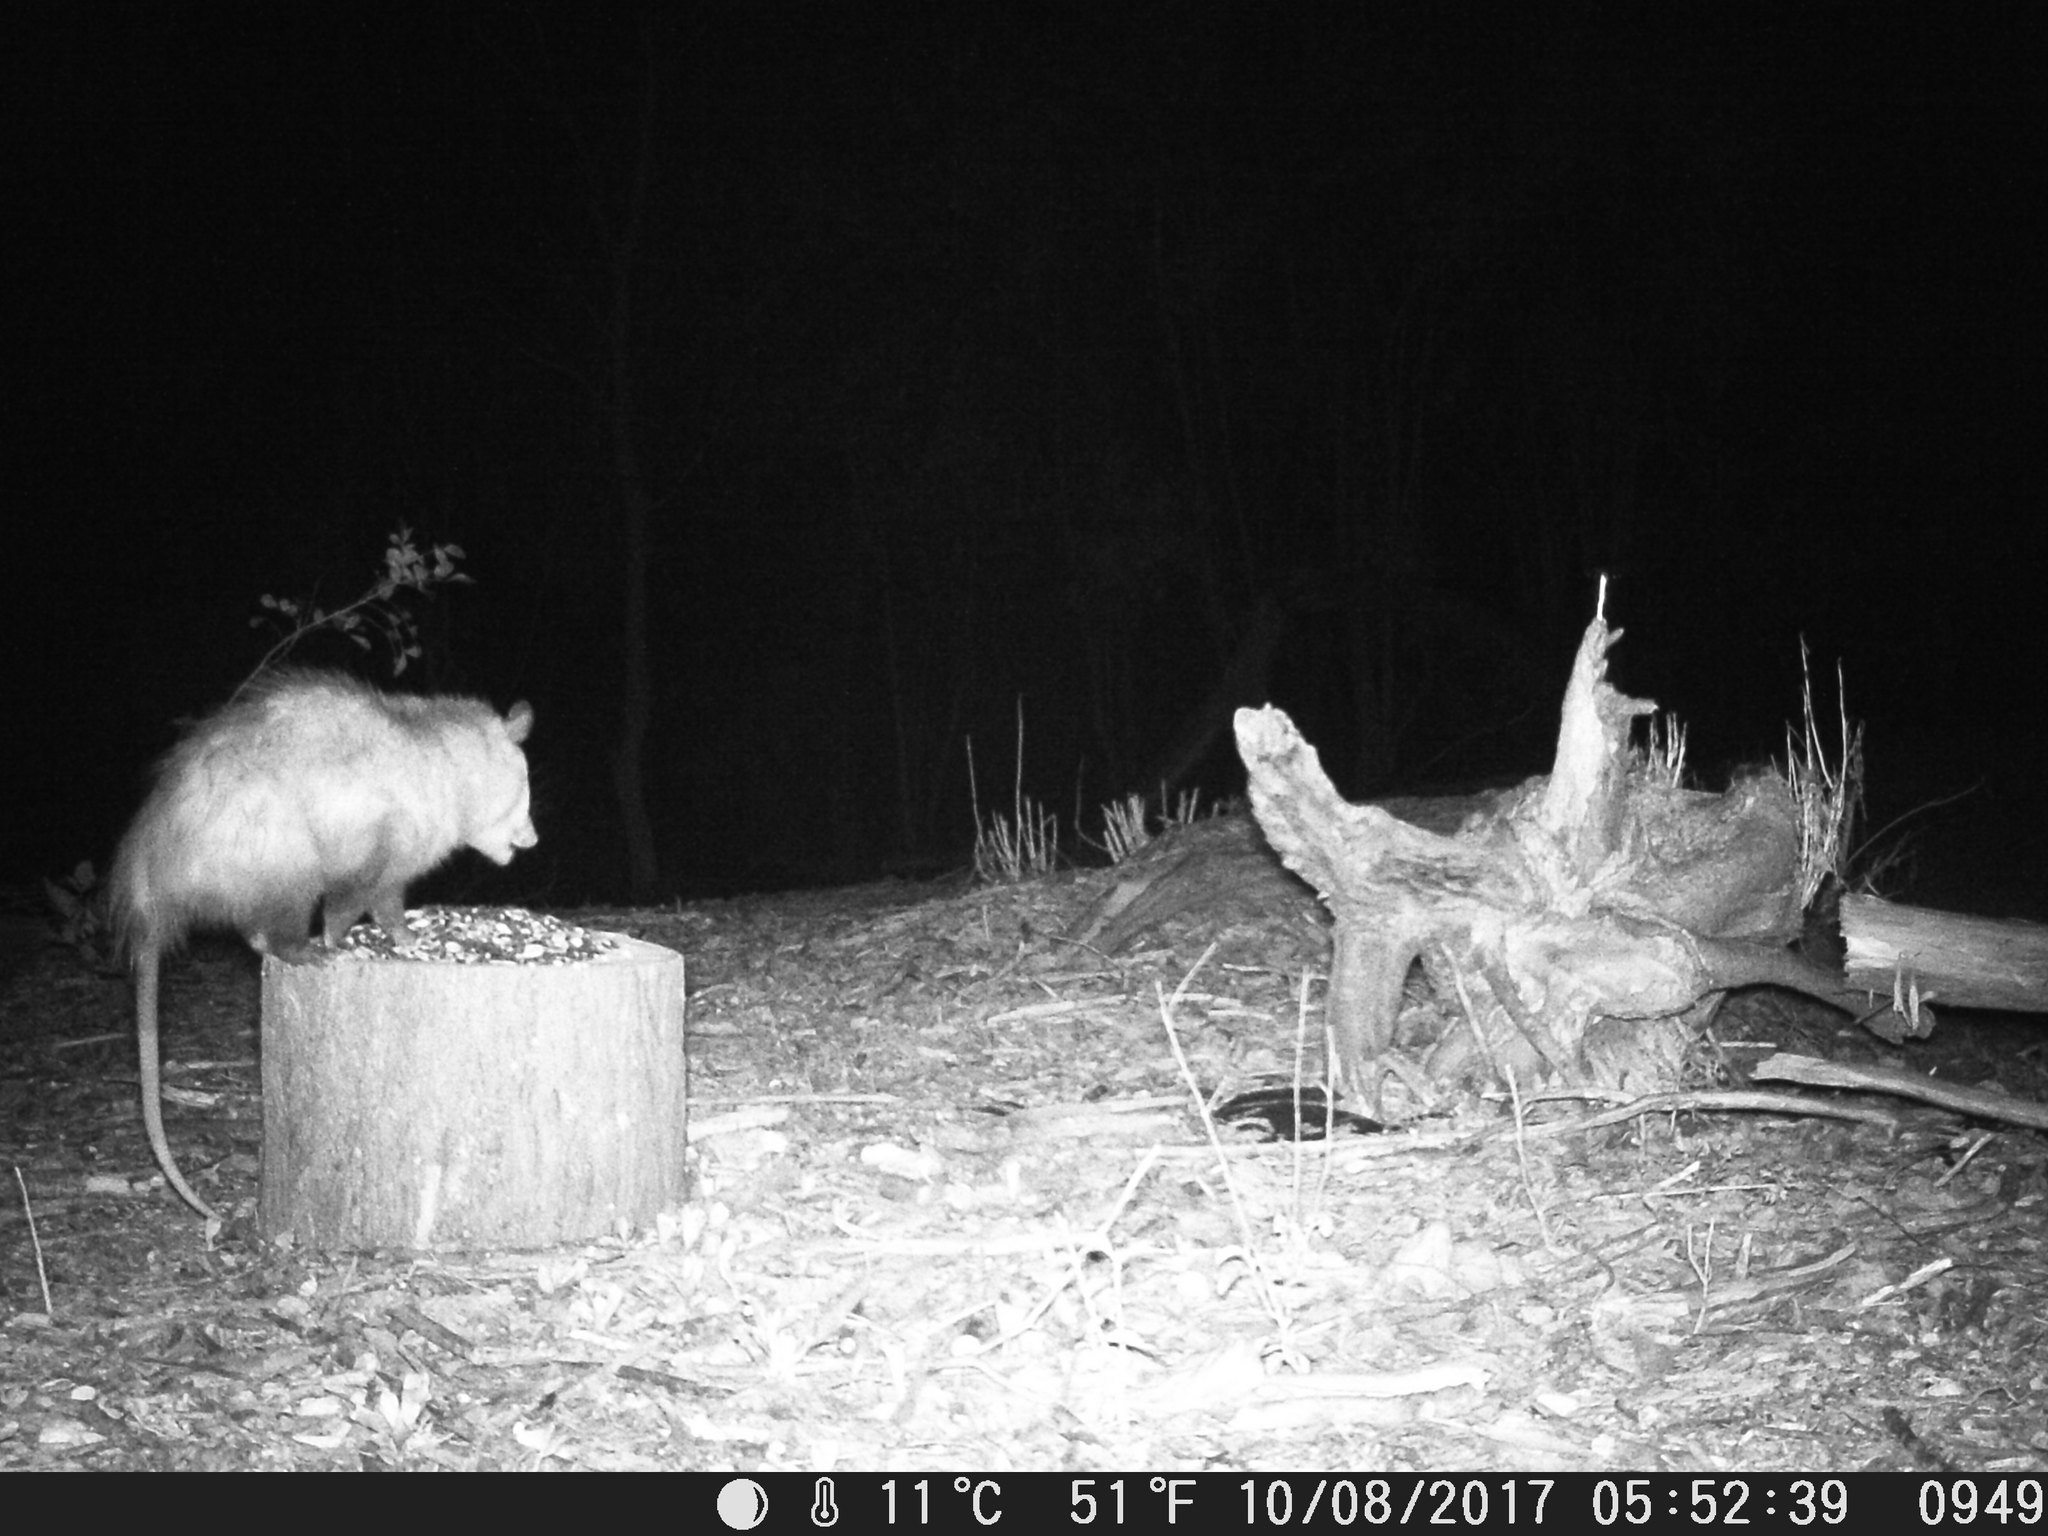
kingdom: Animalia
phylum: Chordata
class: Mammalia
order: Didelphimorphia
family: Didelphidae
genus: Didelphis
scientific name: Didelphis virginiana
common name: Virginia opossum
